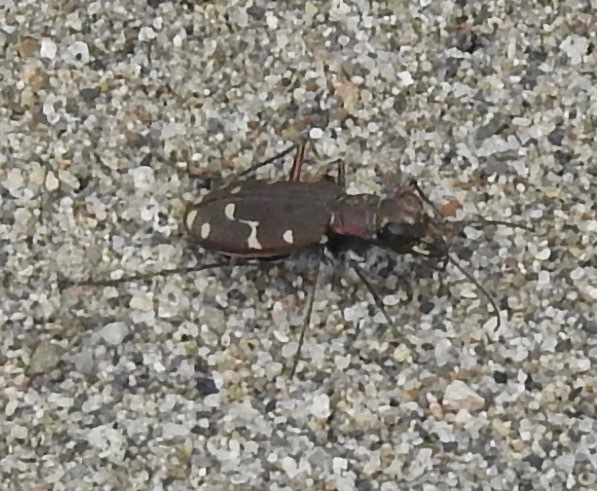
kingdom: Animalia
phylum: Arthropoda
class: Insecta
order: Coleoptera
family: Carabidae
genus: Cicindela
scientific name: Cicindela oregona
